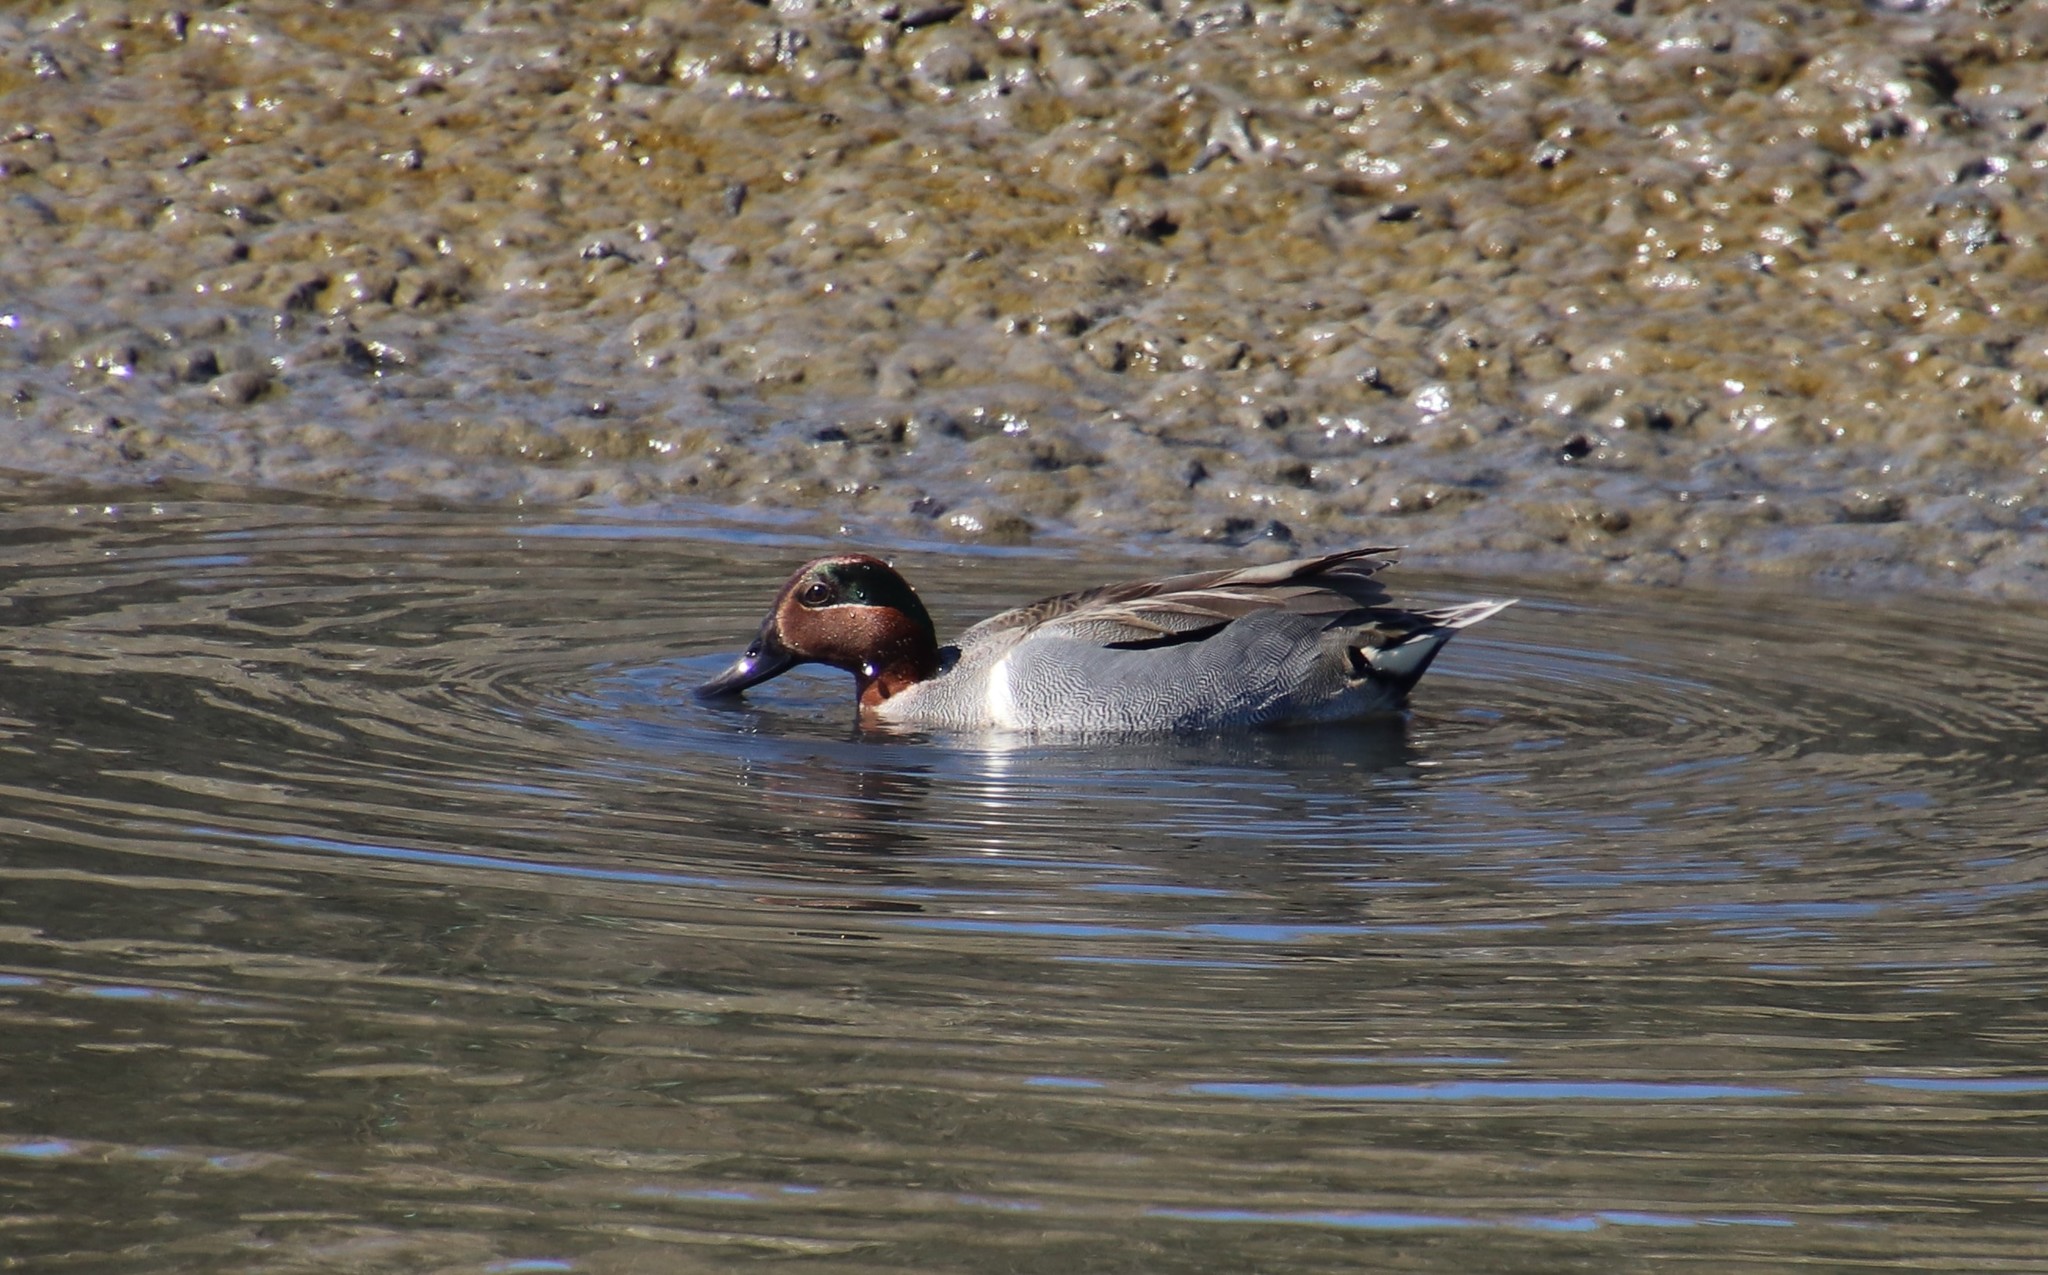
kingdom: Animalia
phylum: Chordata
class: Aves
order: Anseriformes
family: Anatidae
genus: Anas
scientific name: Anas crecca
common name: Eurasian teal
